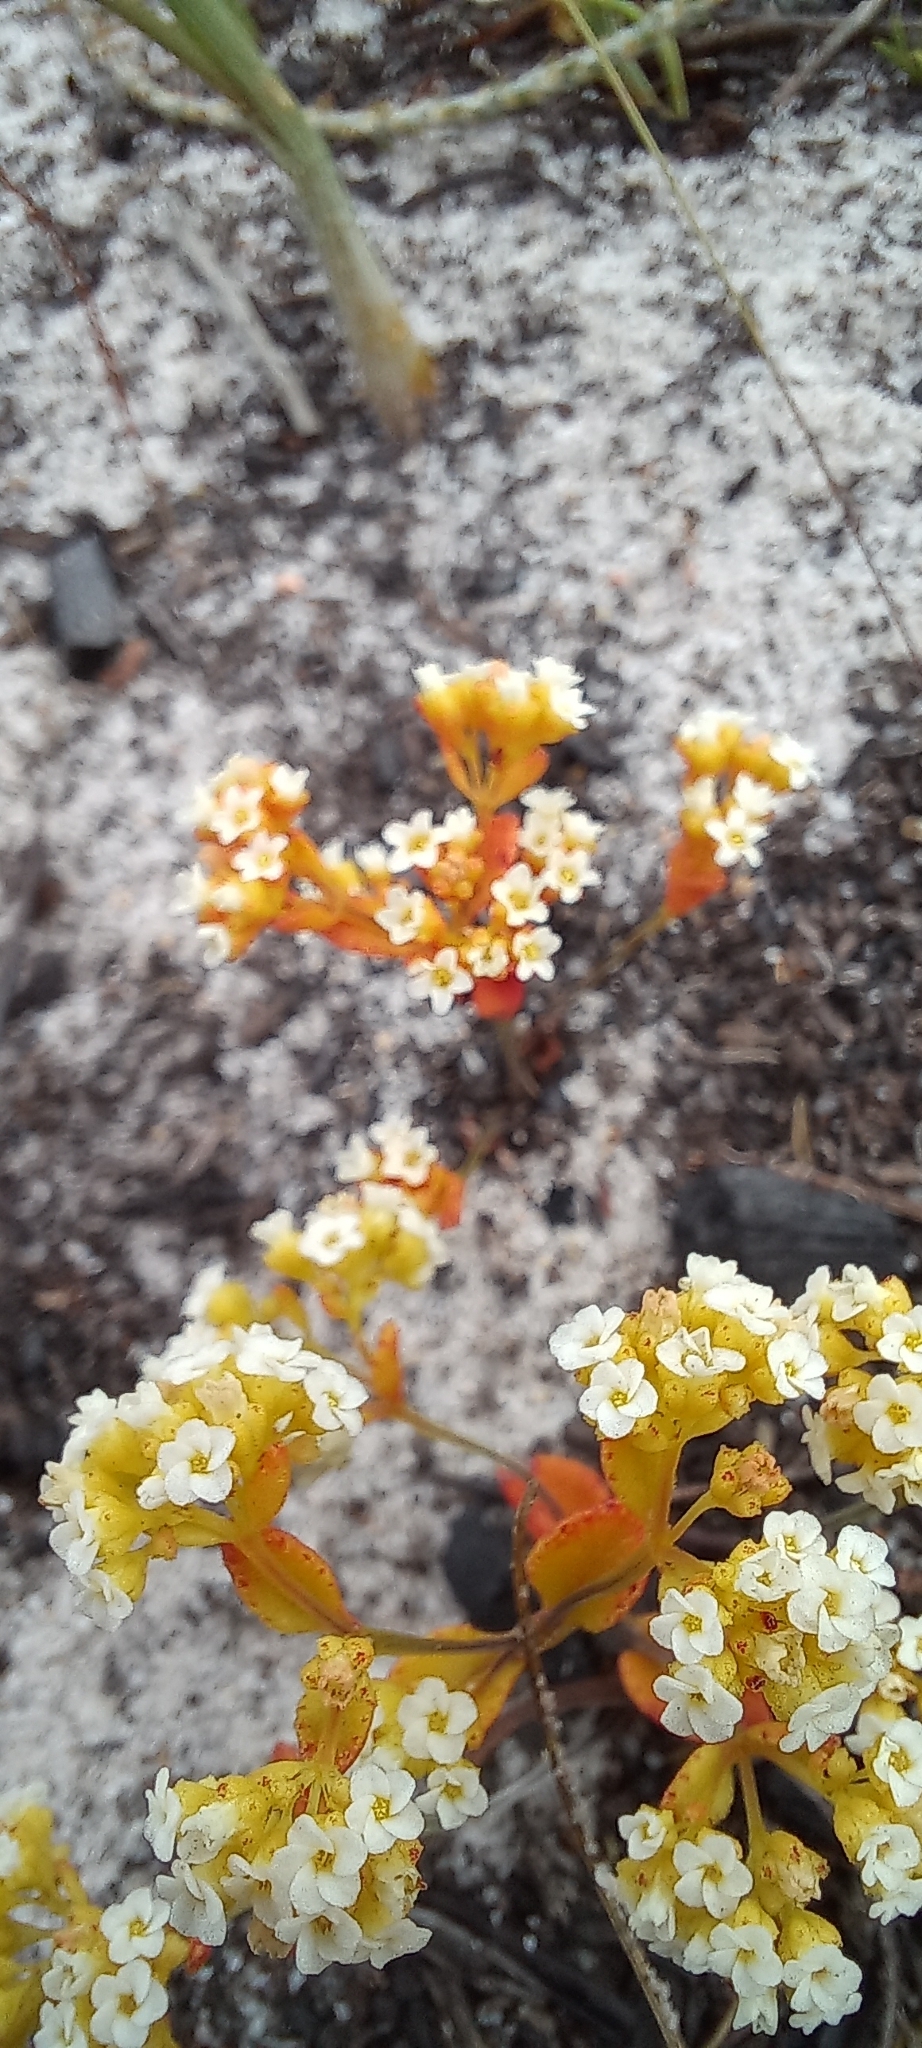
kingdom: Plantae
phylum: Tracheophyta
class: Magnoliopsida
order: Saxifragales
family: Crassulaceae
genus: Crassula
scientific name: Crassula filiformis
